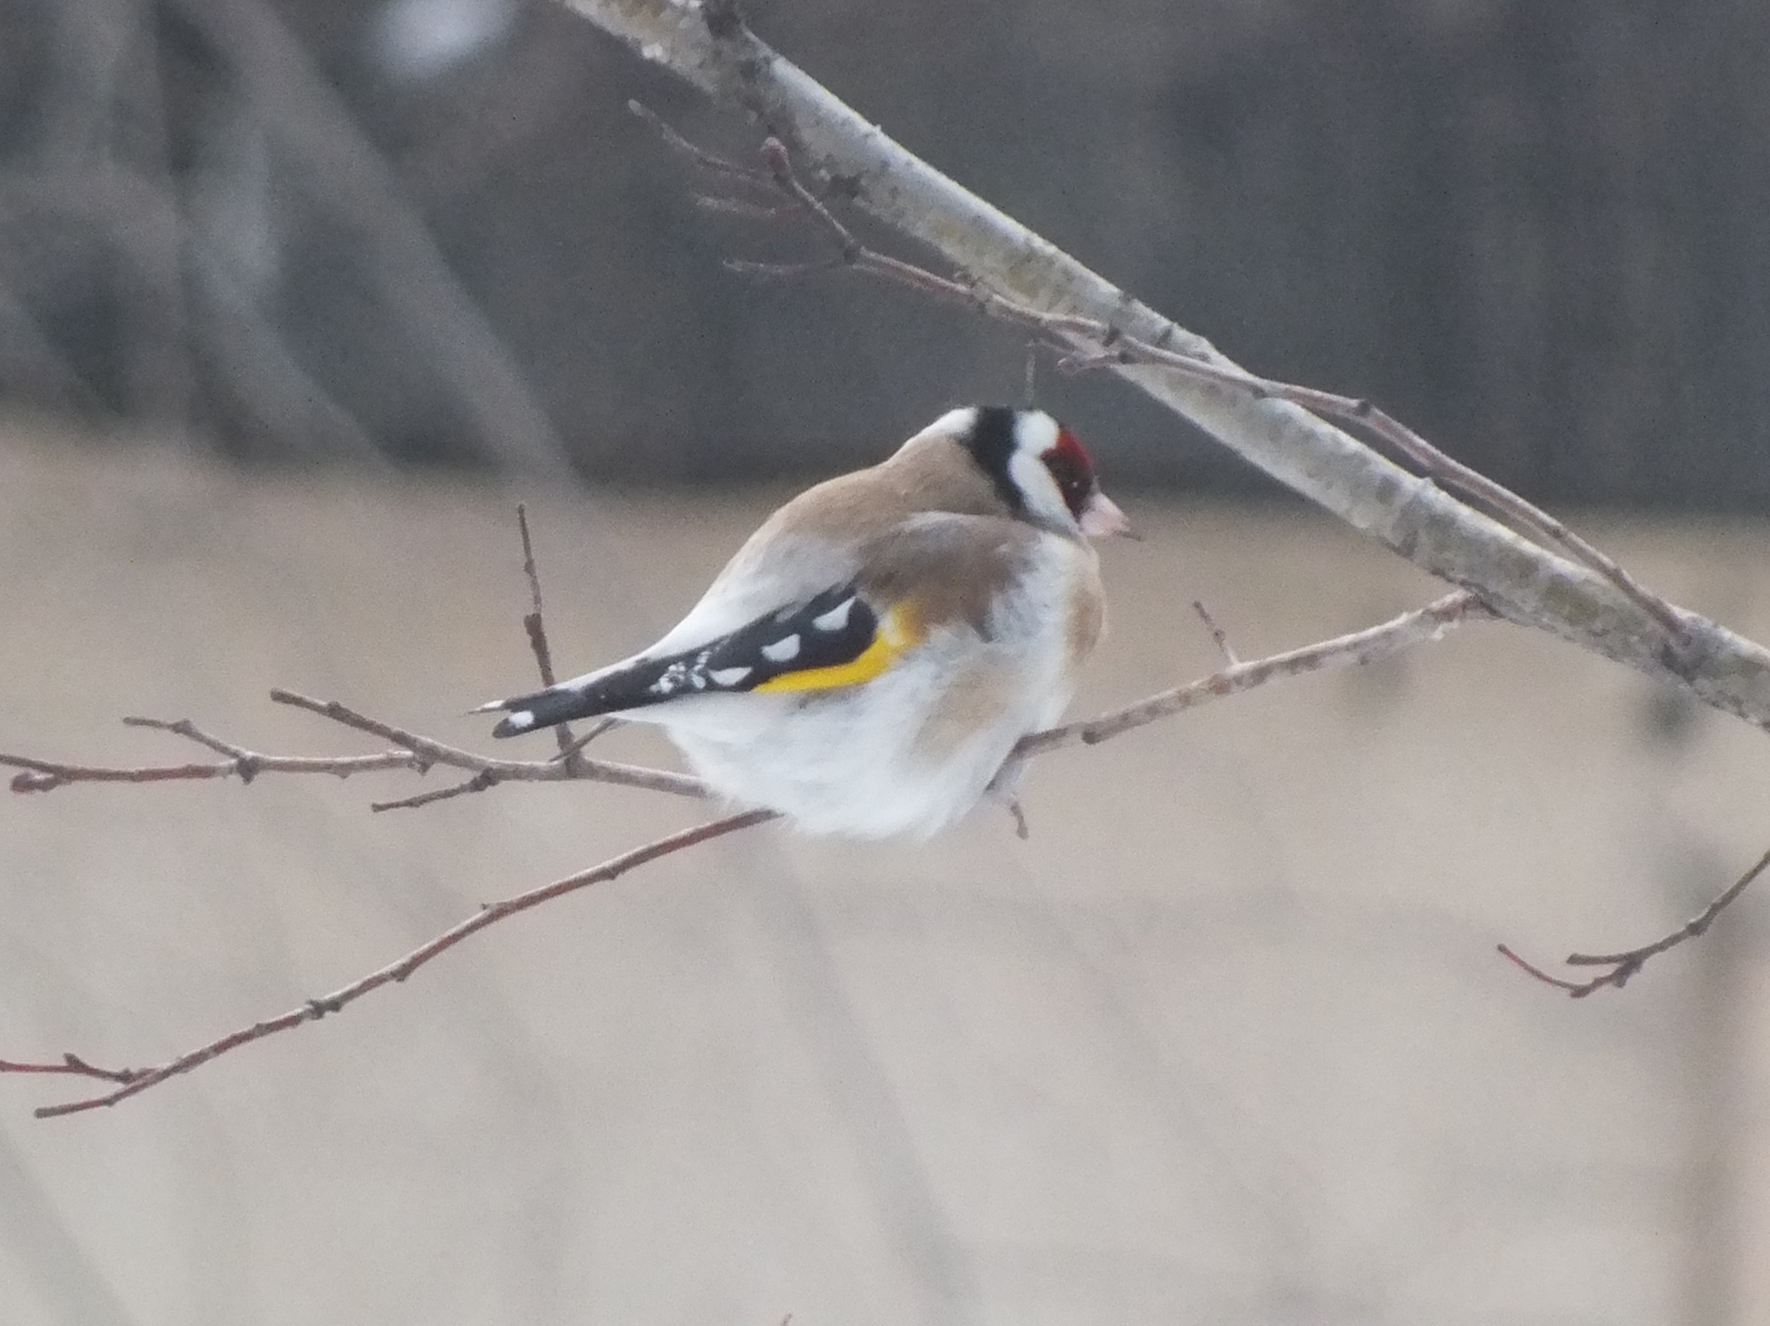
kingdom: Animalia
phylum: Chordata
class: Aves
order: Passeriformes
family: Fringillidae
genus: Carduelis
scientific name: Carduelis carduelis
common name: European goldfinch
